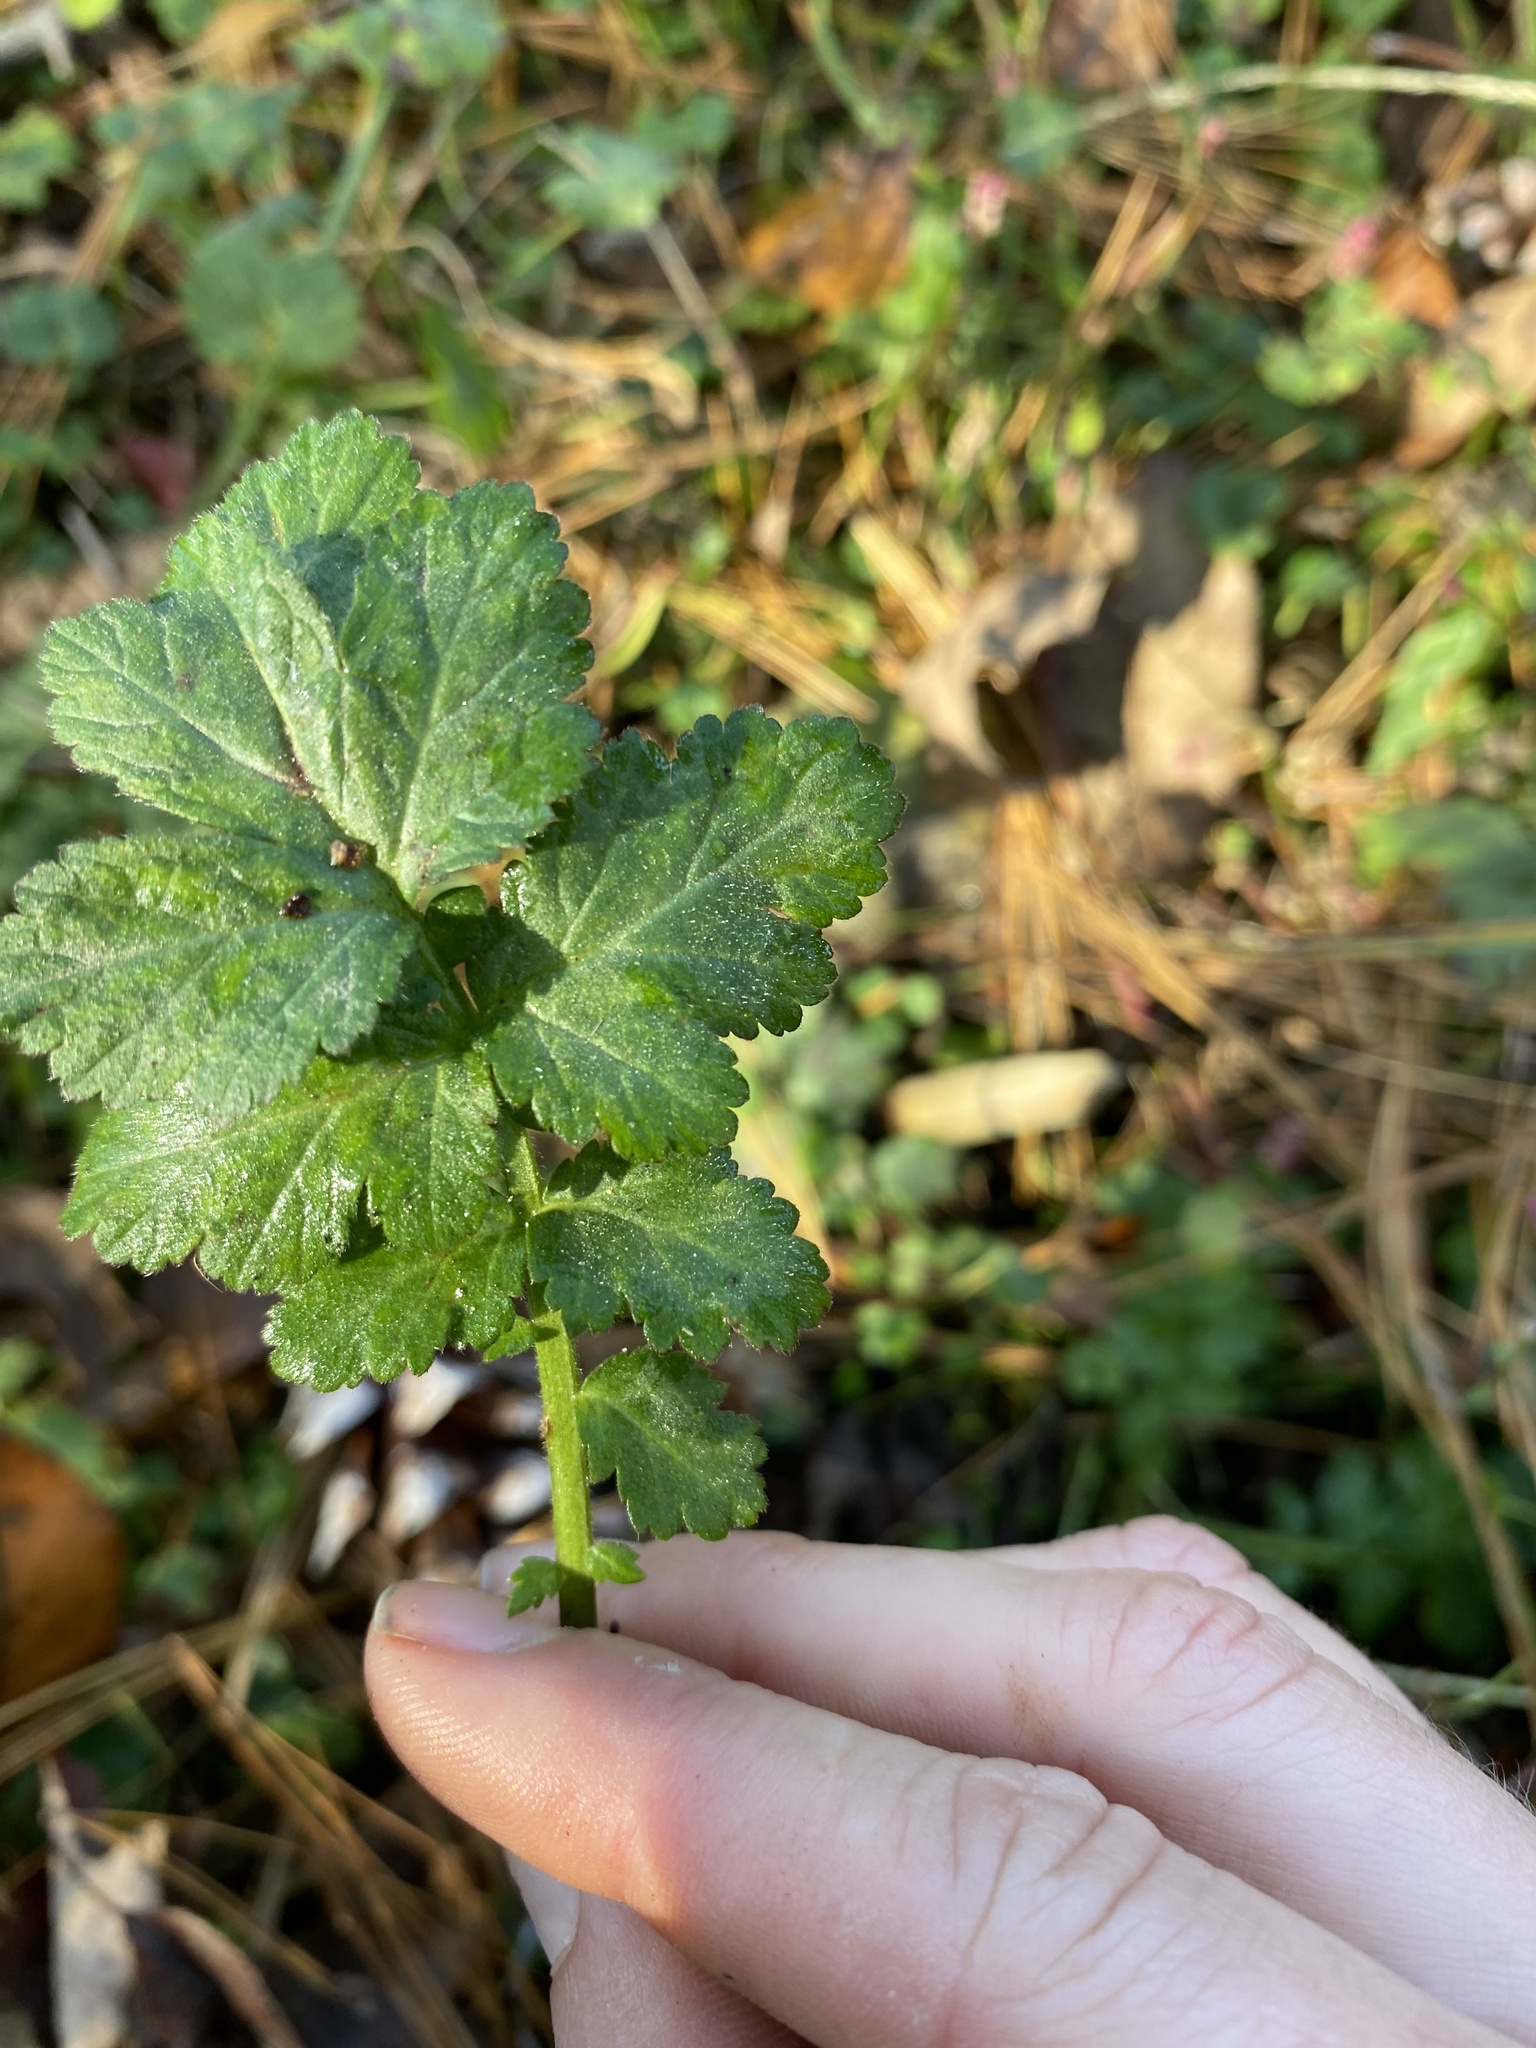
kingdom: Plantae
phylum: Tracheophyta
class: Magnoliopsida
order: Rosales
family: Rosaceae
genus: Geum
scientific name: Geum canadense
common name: White avens
